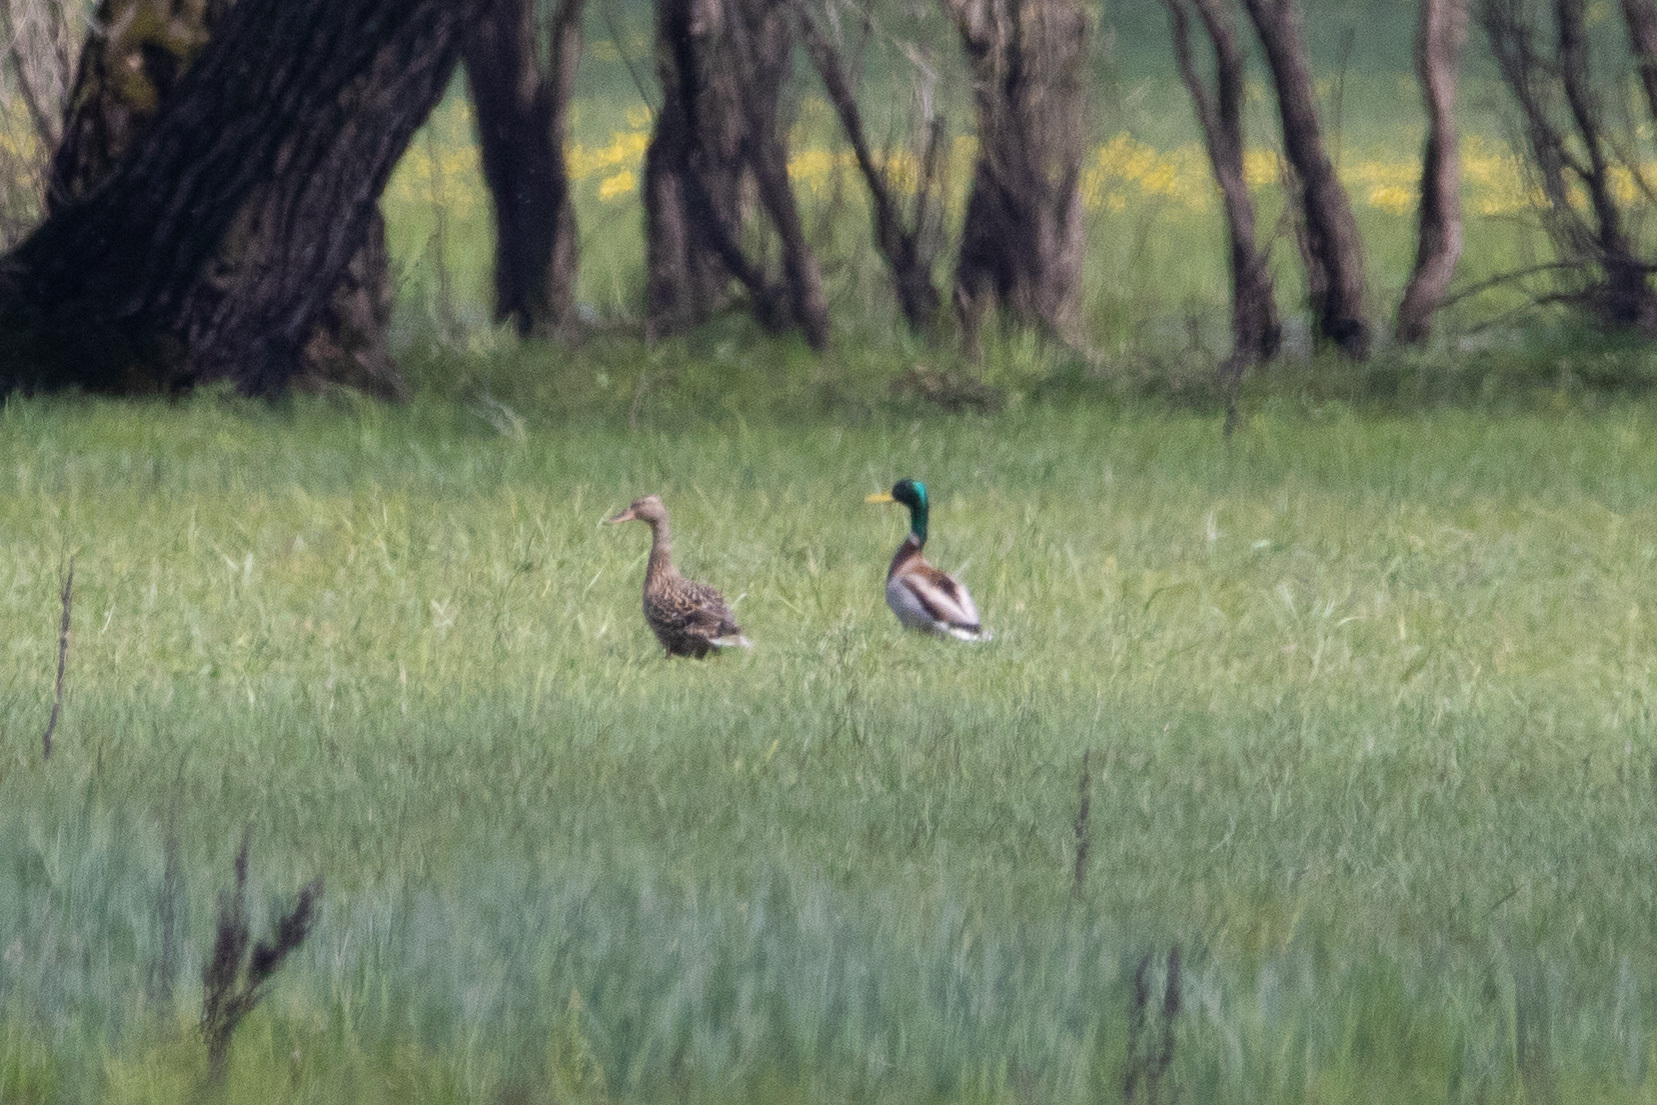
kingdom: Animalia
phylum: Chordata
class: Aves
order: Anseriformes
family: Anatidae
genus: Anas
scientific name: Anas platyrhynchos
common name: Mallard
